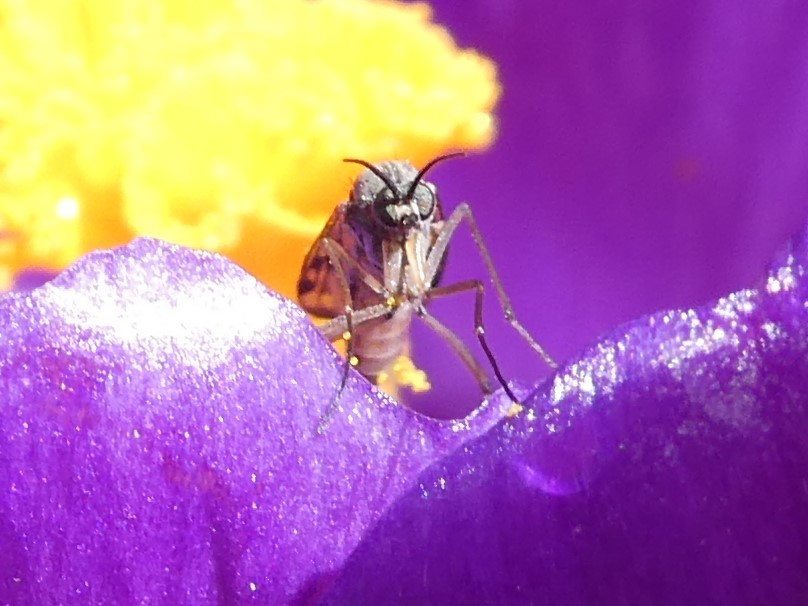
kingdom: Animalia
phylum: Arthropoda
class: Insecta
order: Diptera
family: Anisopodidae
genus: Sylvicola
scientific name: Sylvicola alternata
